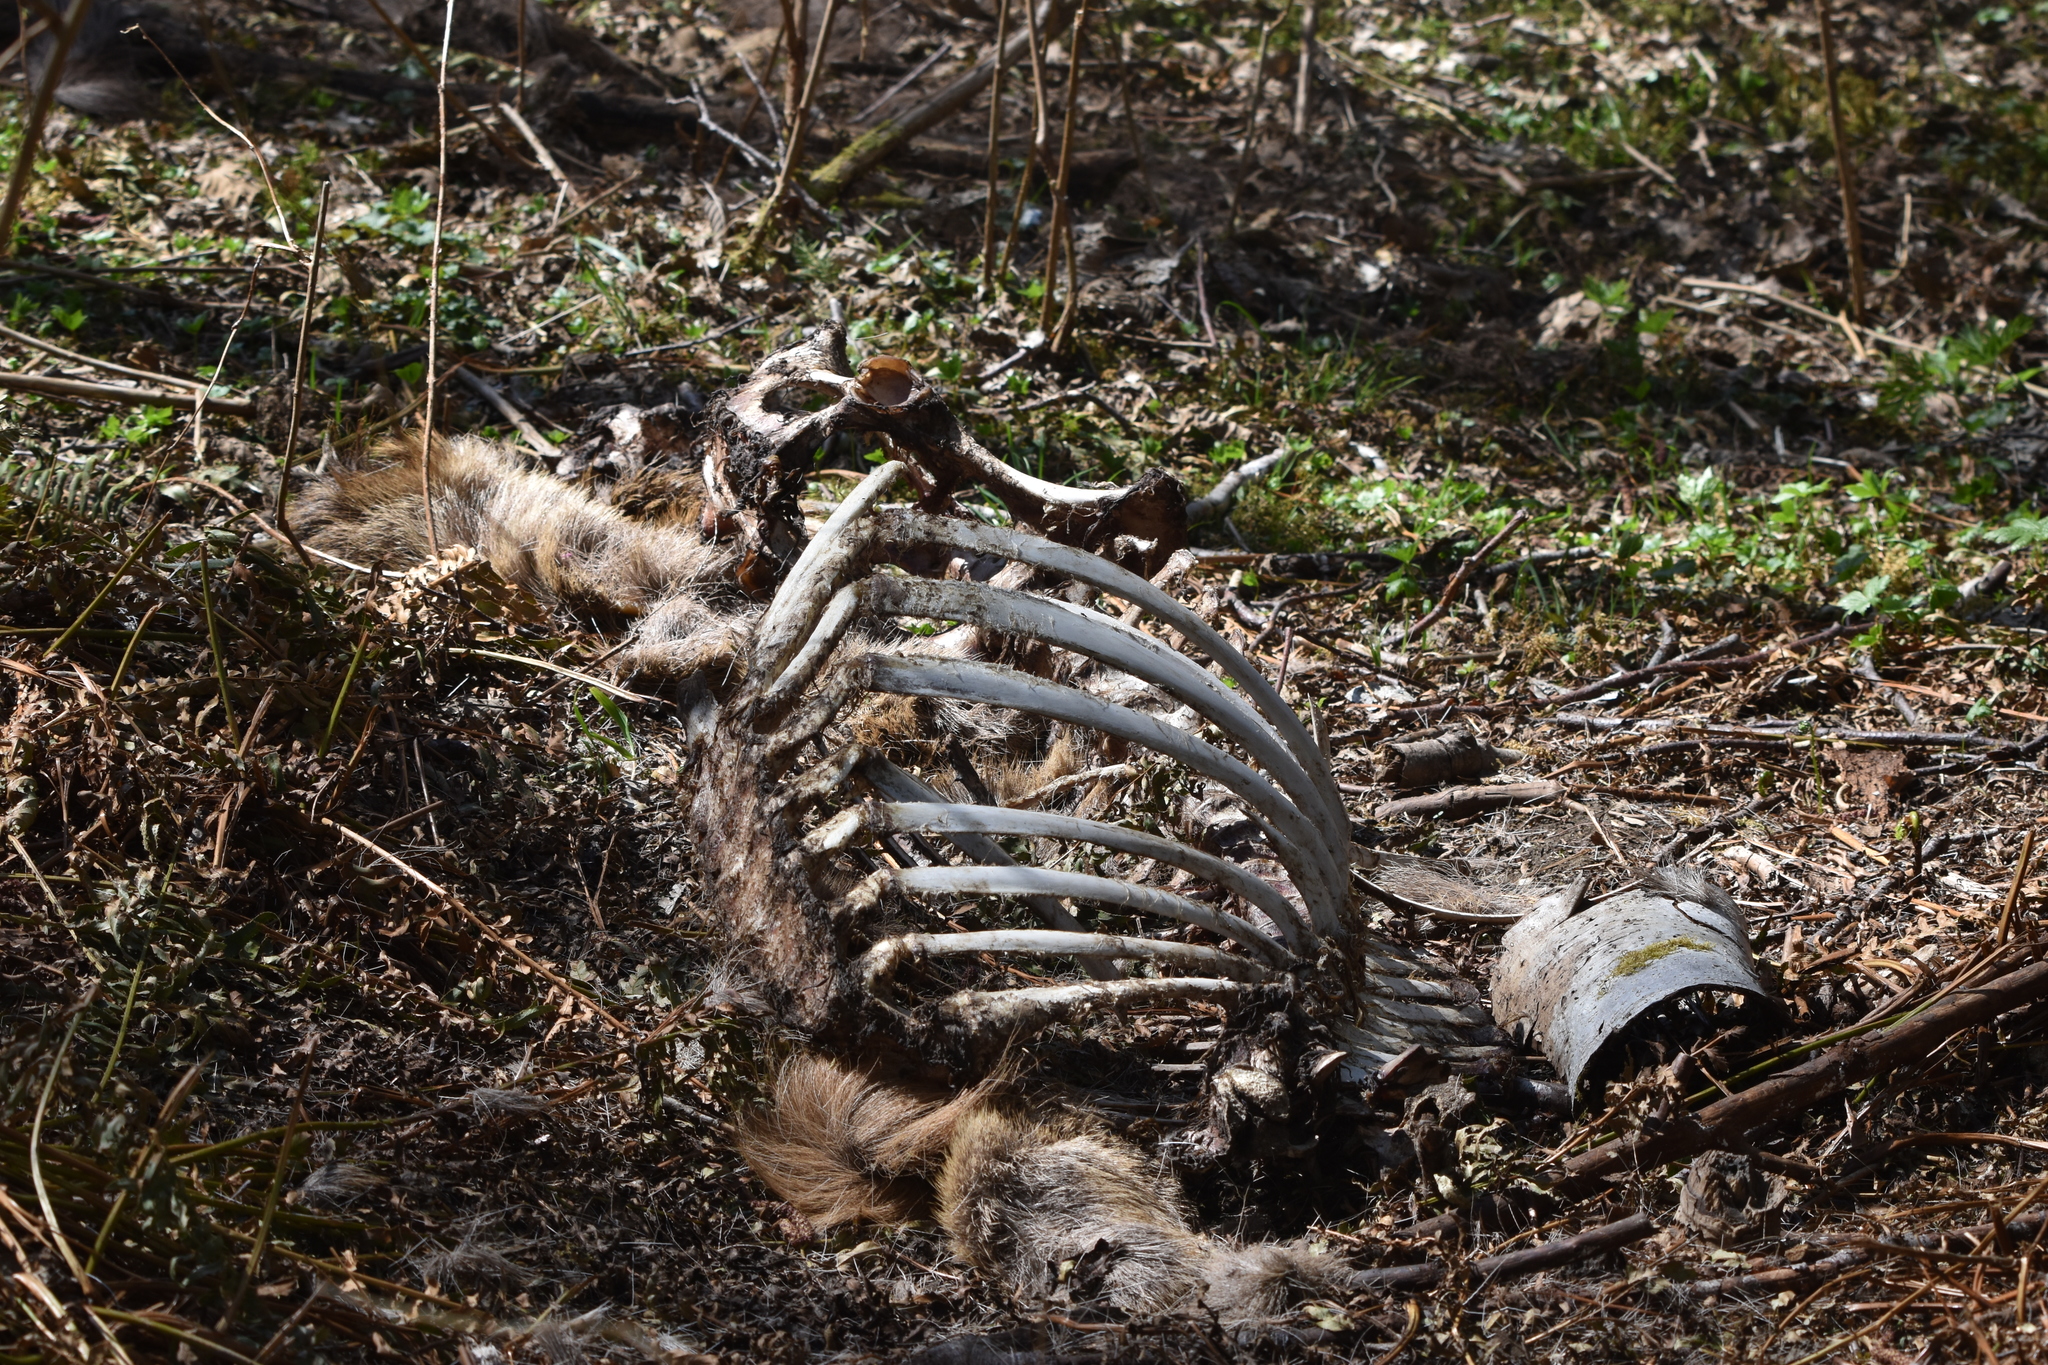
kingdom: Animalia
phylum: Chordata
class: Mammalia
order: Artiodactyla
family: Cervidae
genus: Cervus
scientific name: Cervus elaphus
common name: Red deer
